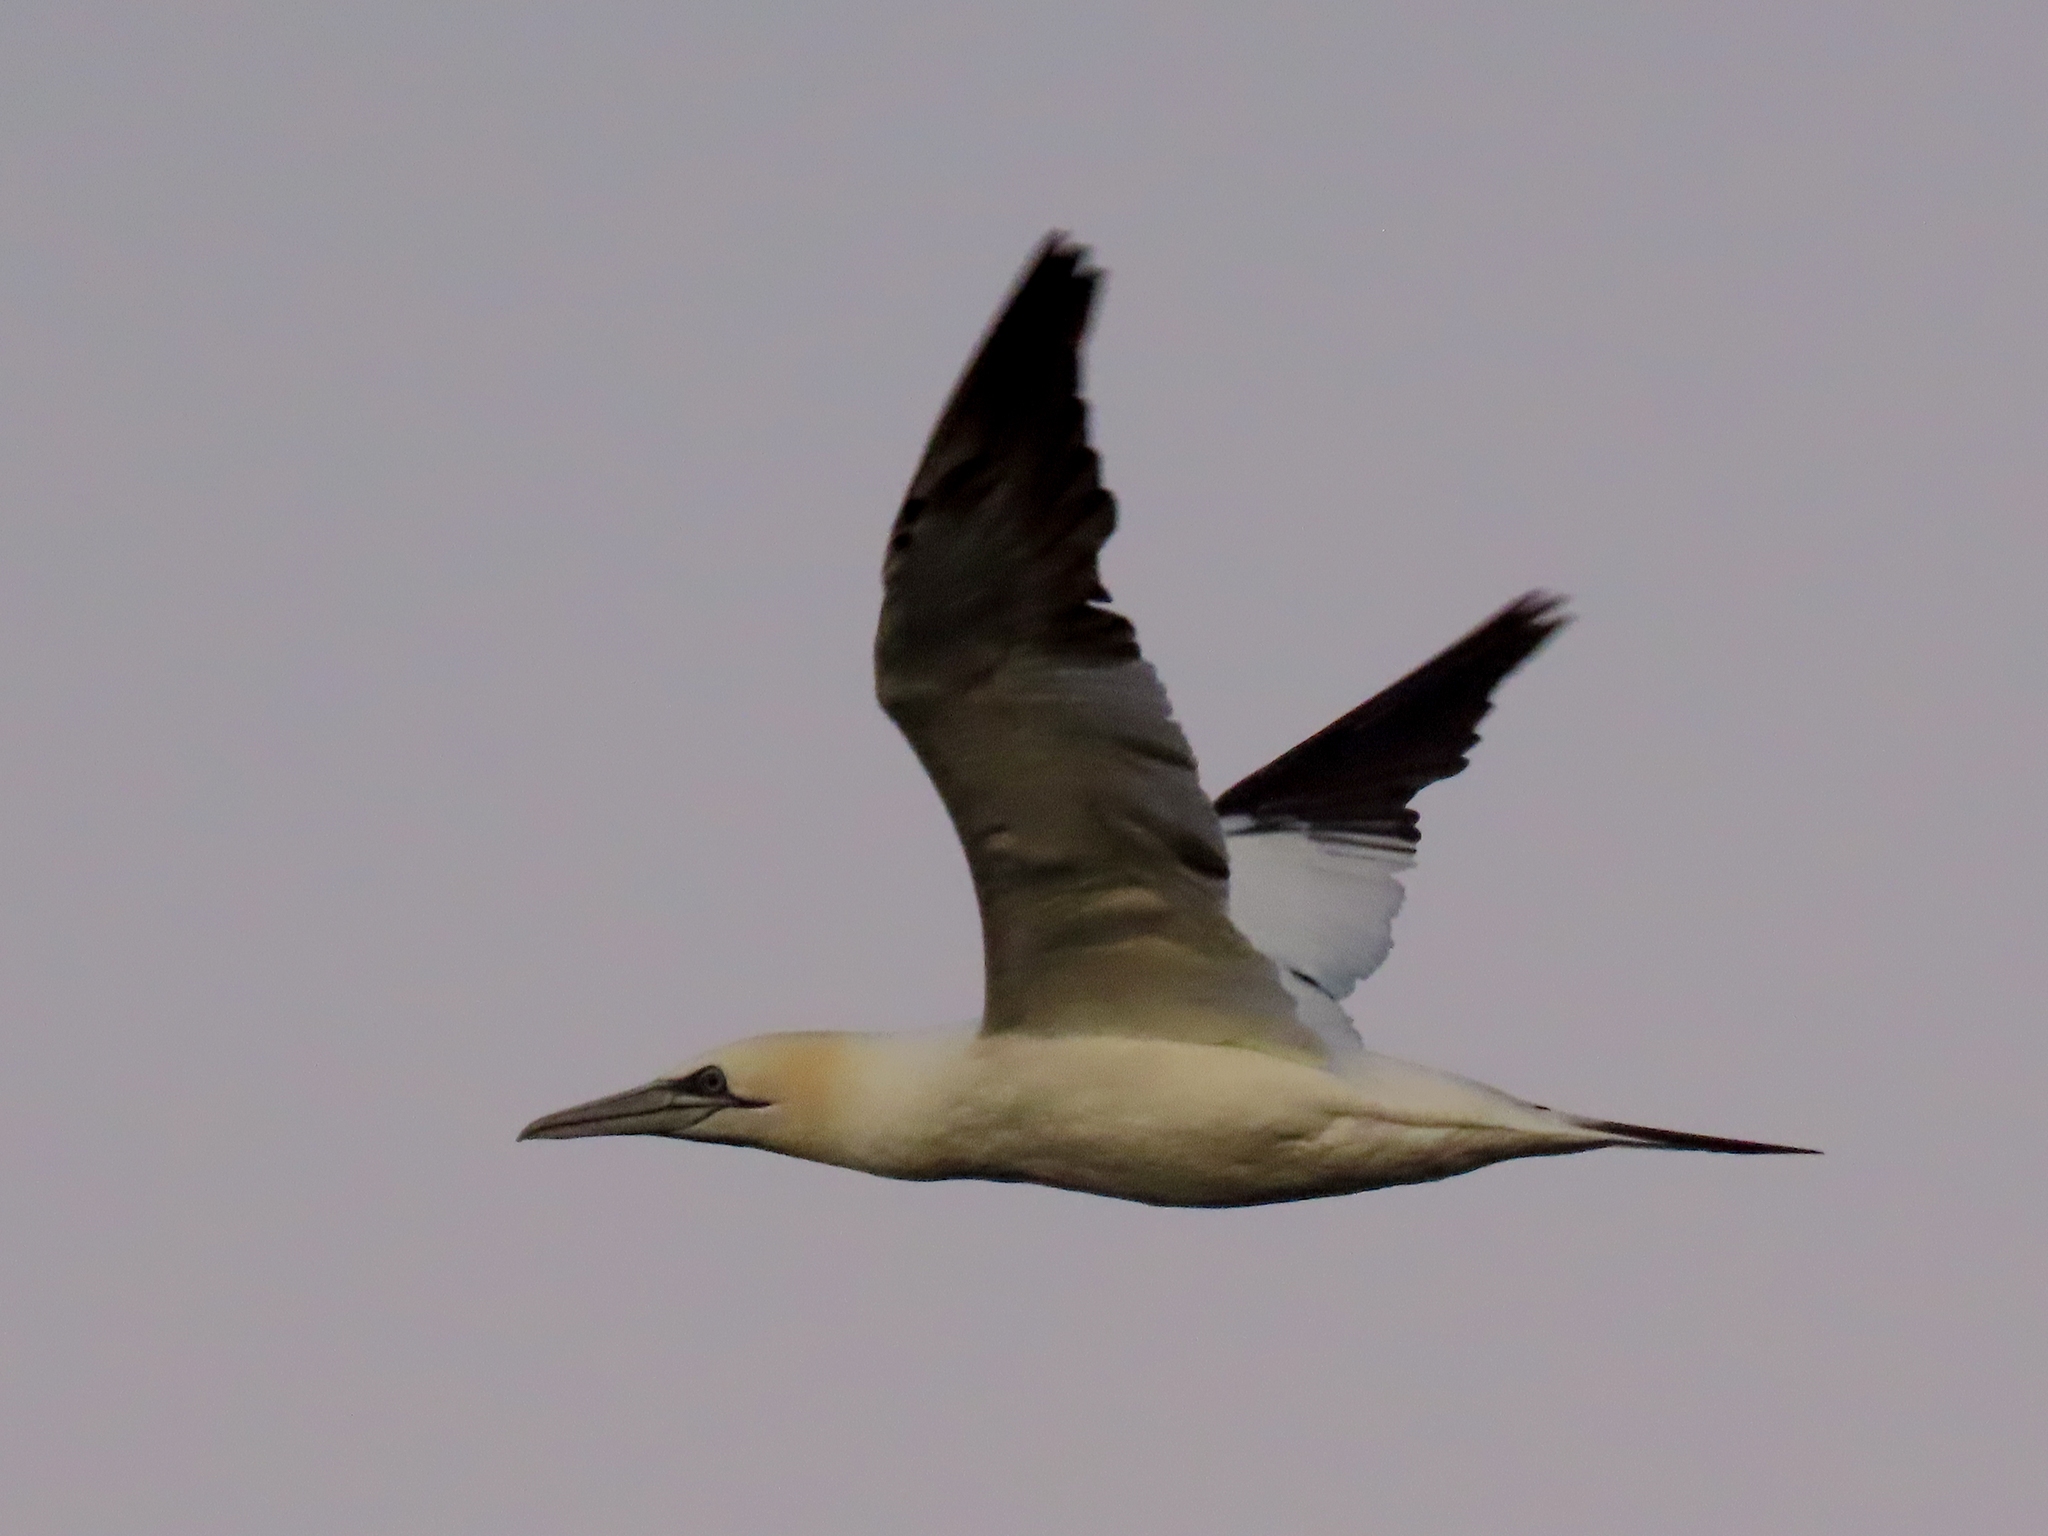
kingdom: Animalia
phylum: Chordata
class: Aves
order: Suliformes
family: Sulidae
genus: Morus
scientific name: Morus bassanus
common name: Northern gannet
